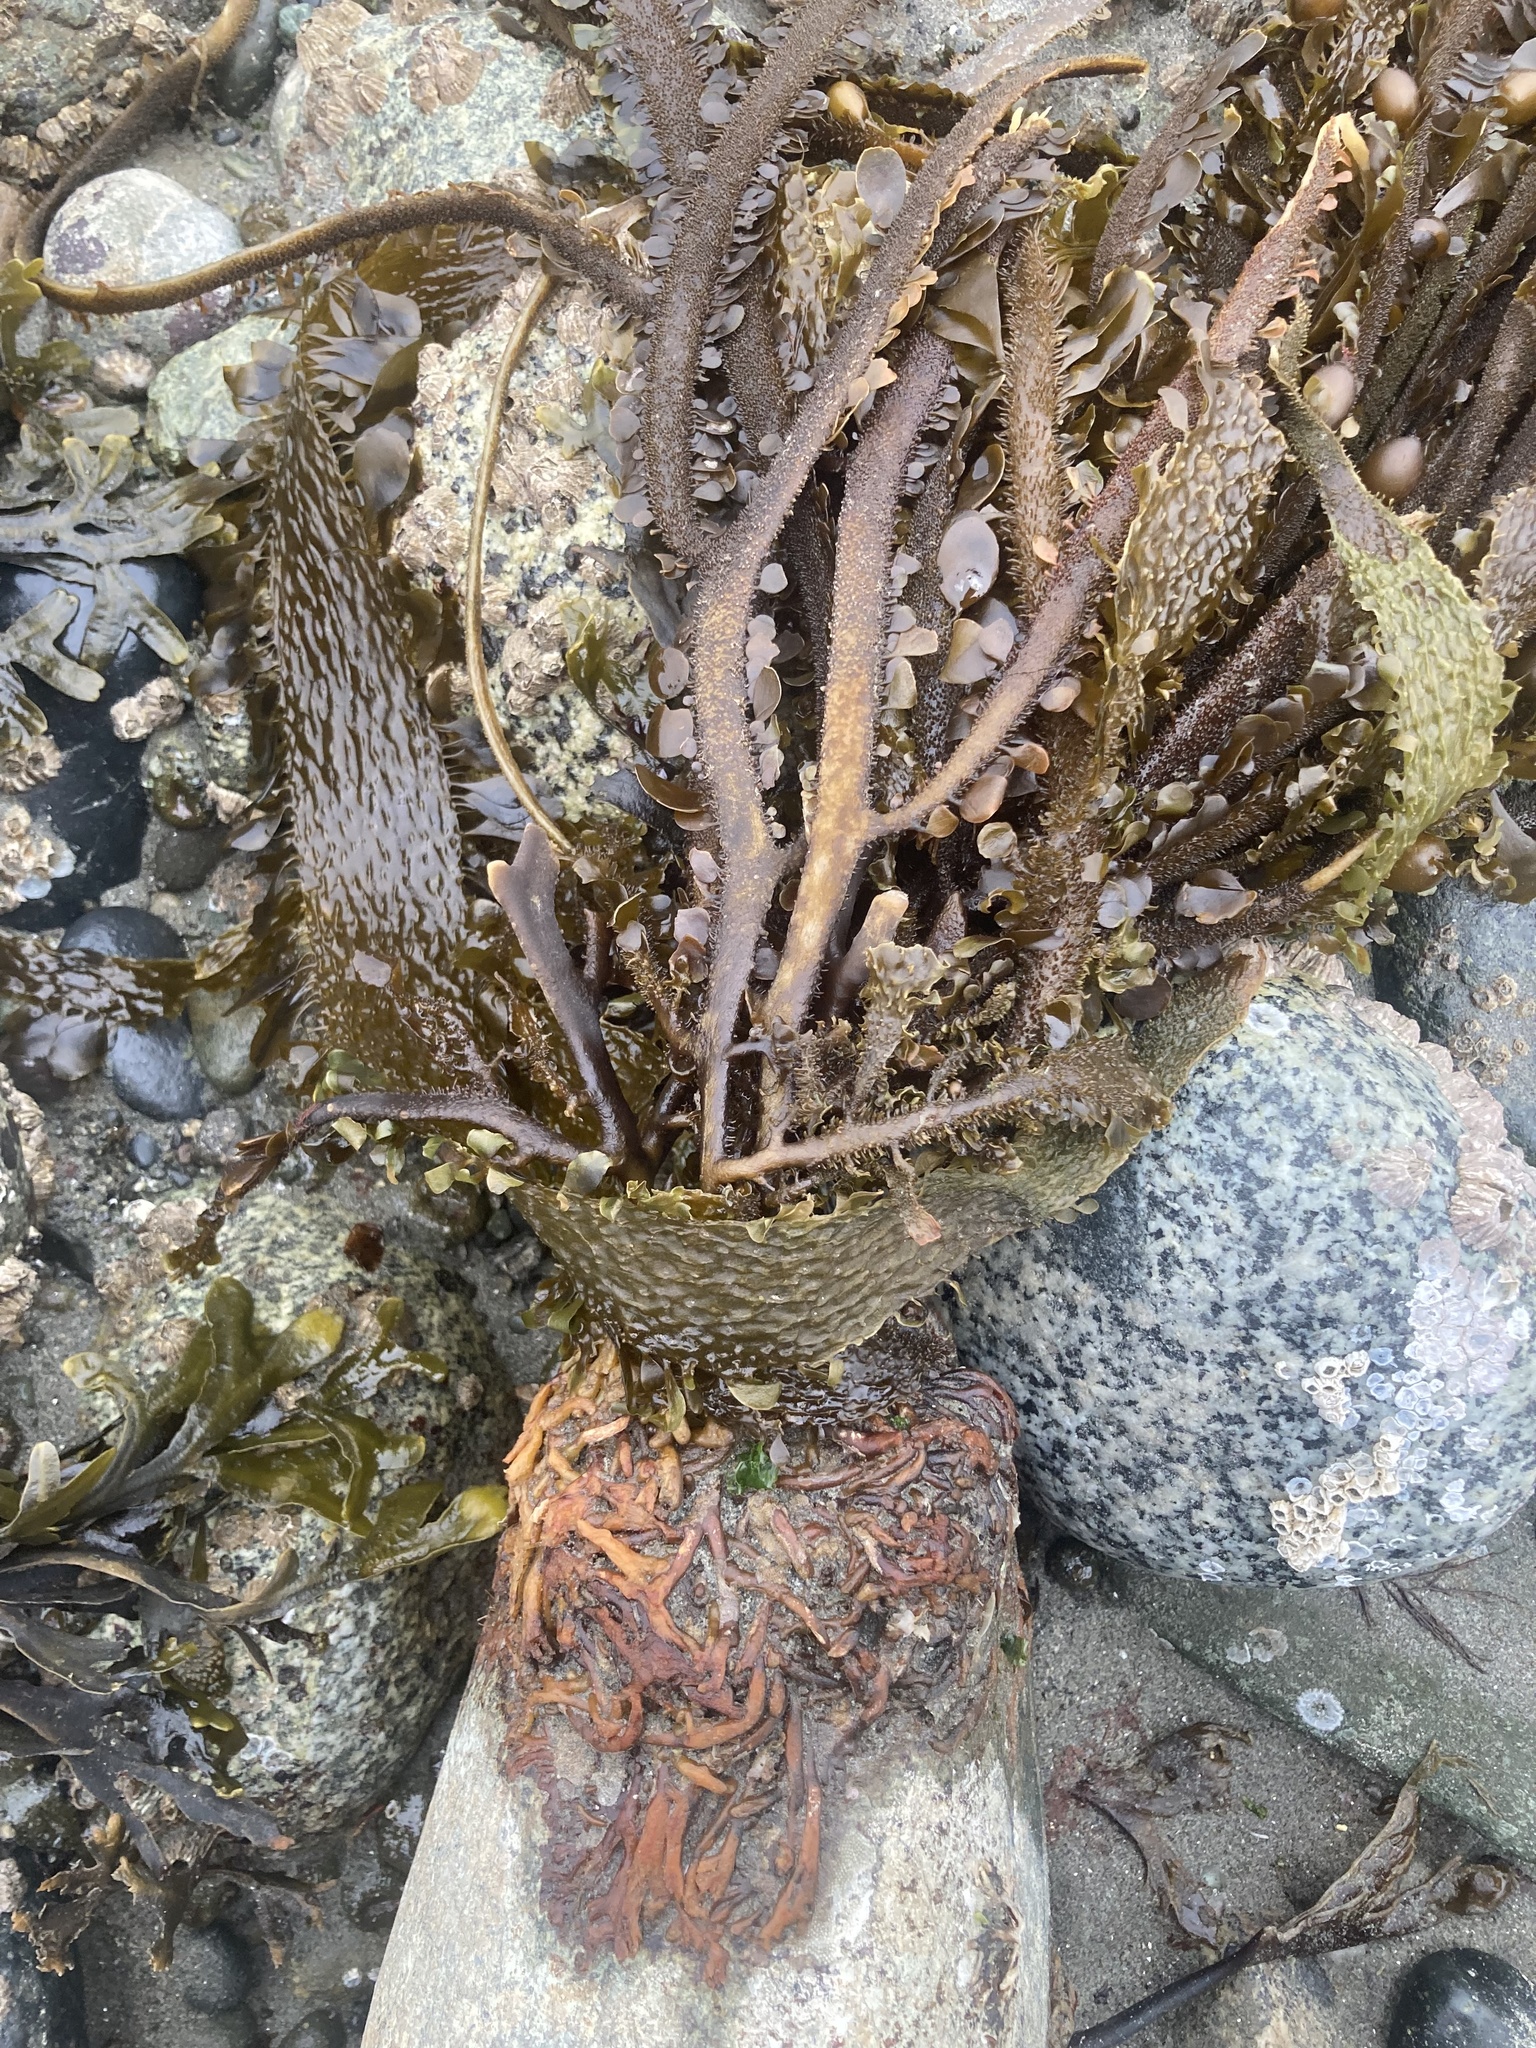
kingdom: Chromista
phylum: Ochrophyta
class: Phaeophyceae
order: Laminariales
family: Lessoniaceae
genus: Egregia
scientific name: Egregia menziesii
